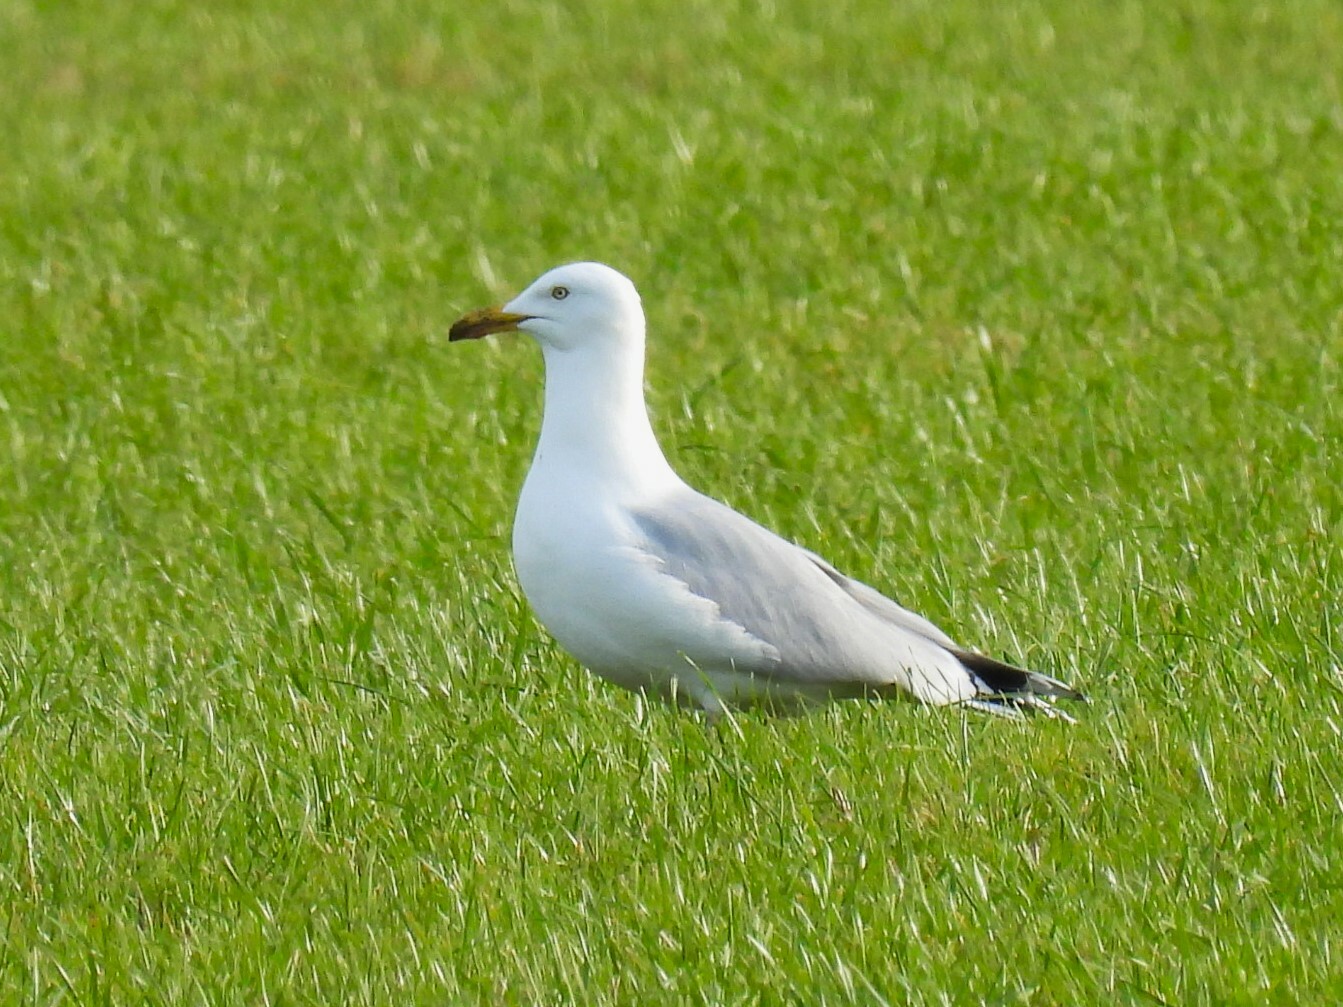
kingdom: Animalia
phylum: Chordata
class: Aves
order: Charadriiformes
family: Laridae
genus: Larus
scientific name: Larus argentatus
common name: Herring gull
